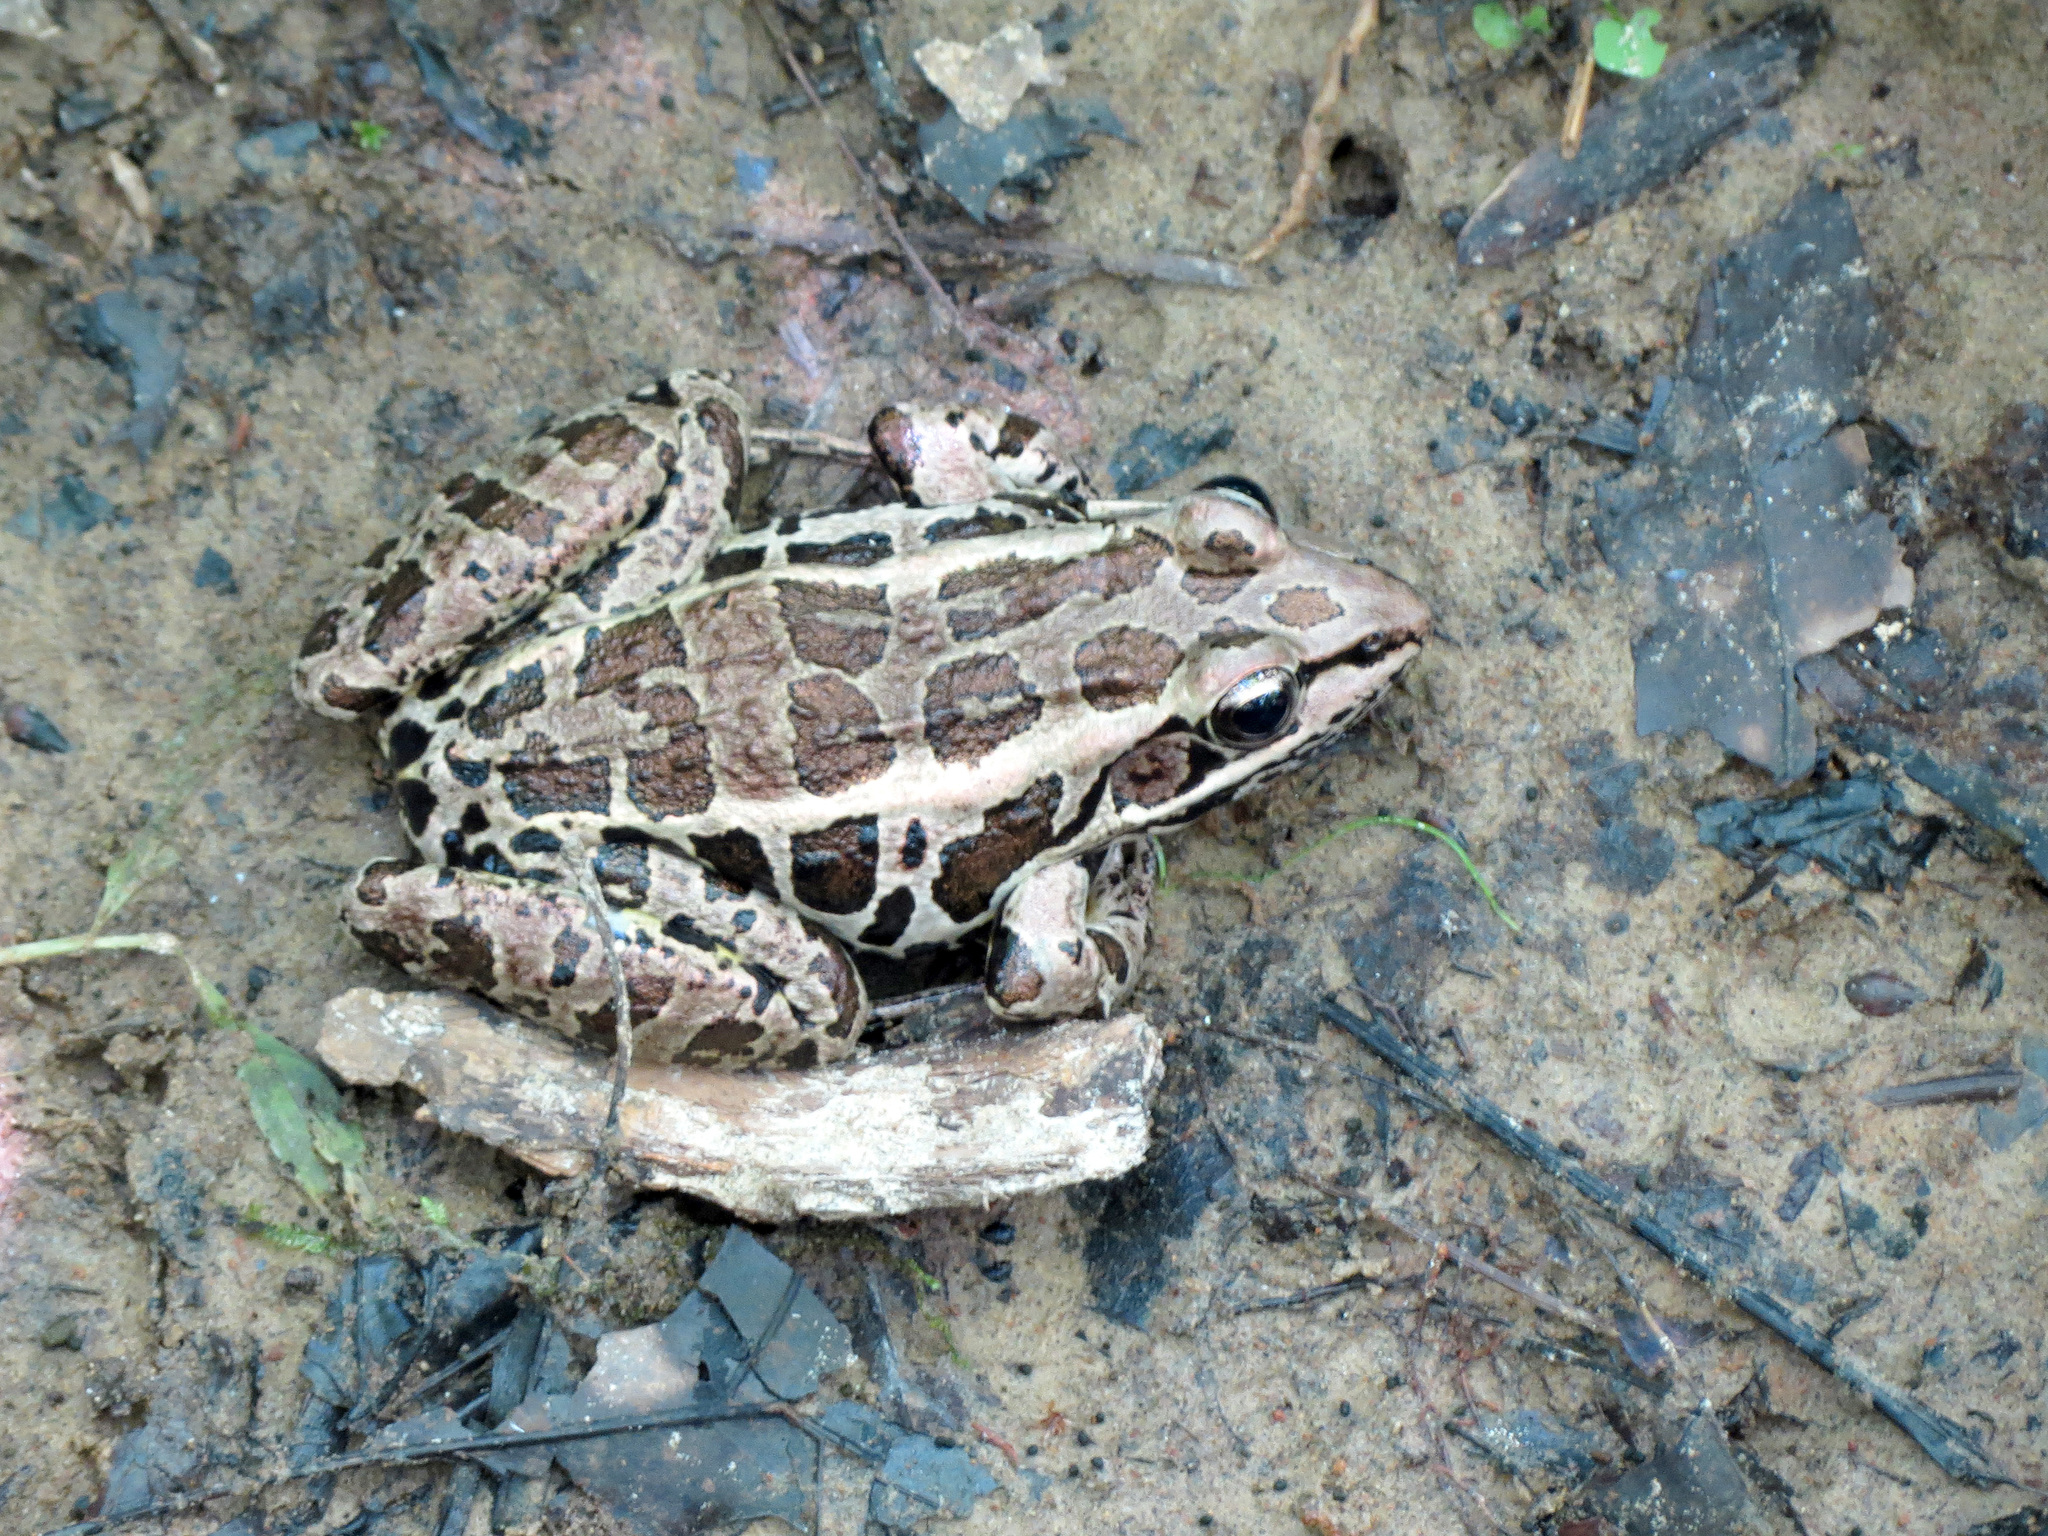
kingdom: Animalia
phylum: Chordata
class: Amphibia
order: Anura
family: Ranidae
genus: Lithobates
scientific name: Lithobates palustris
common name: Pickerel frog
